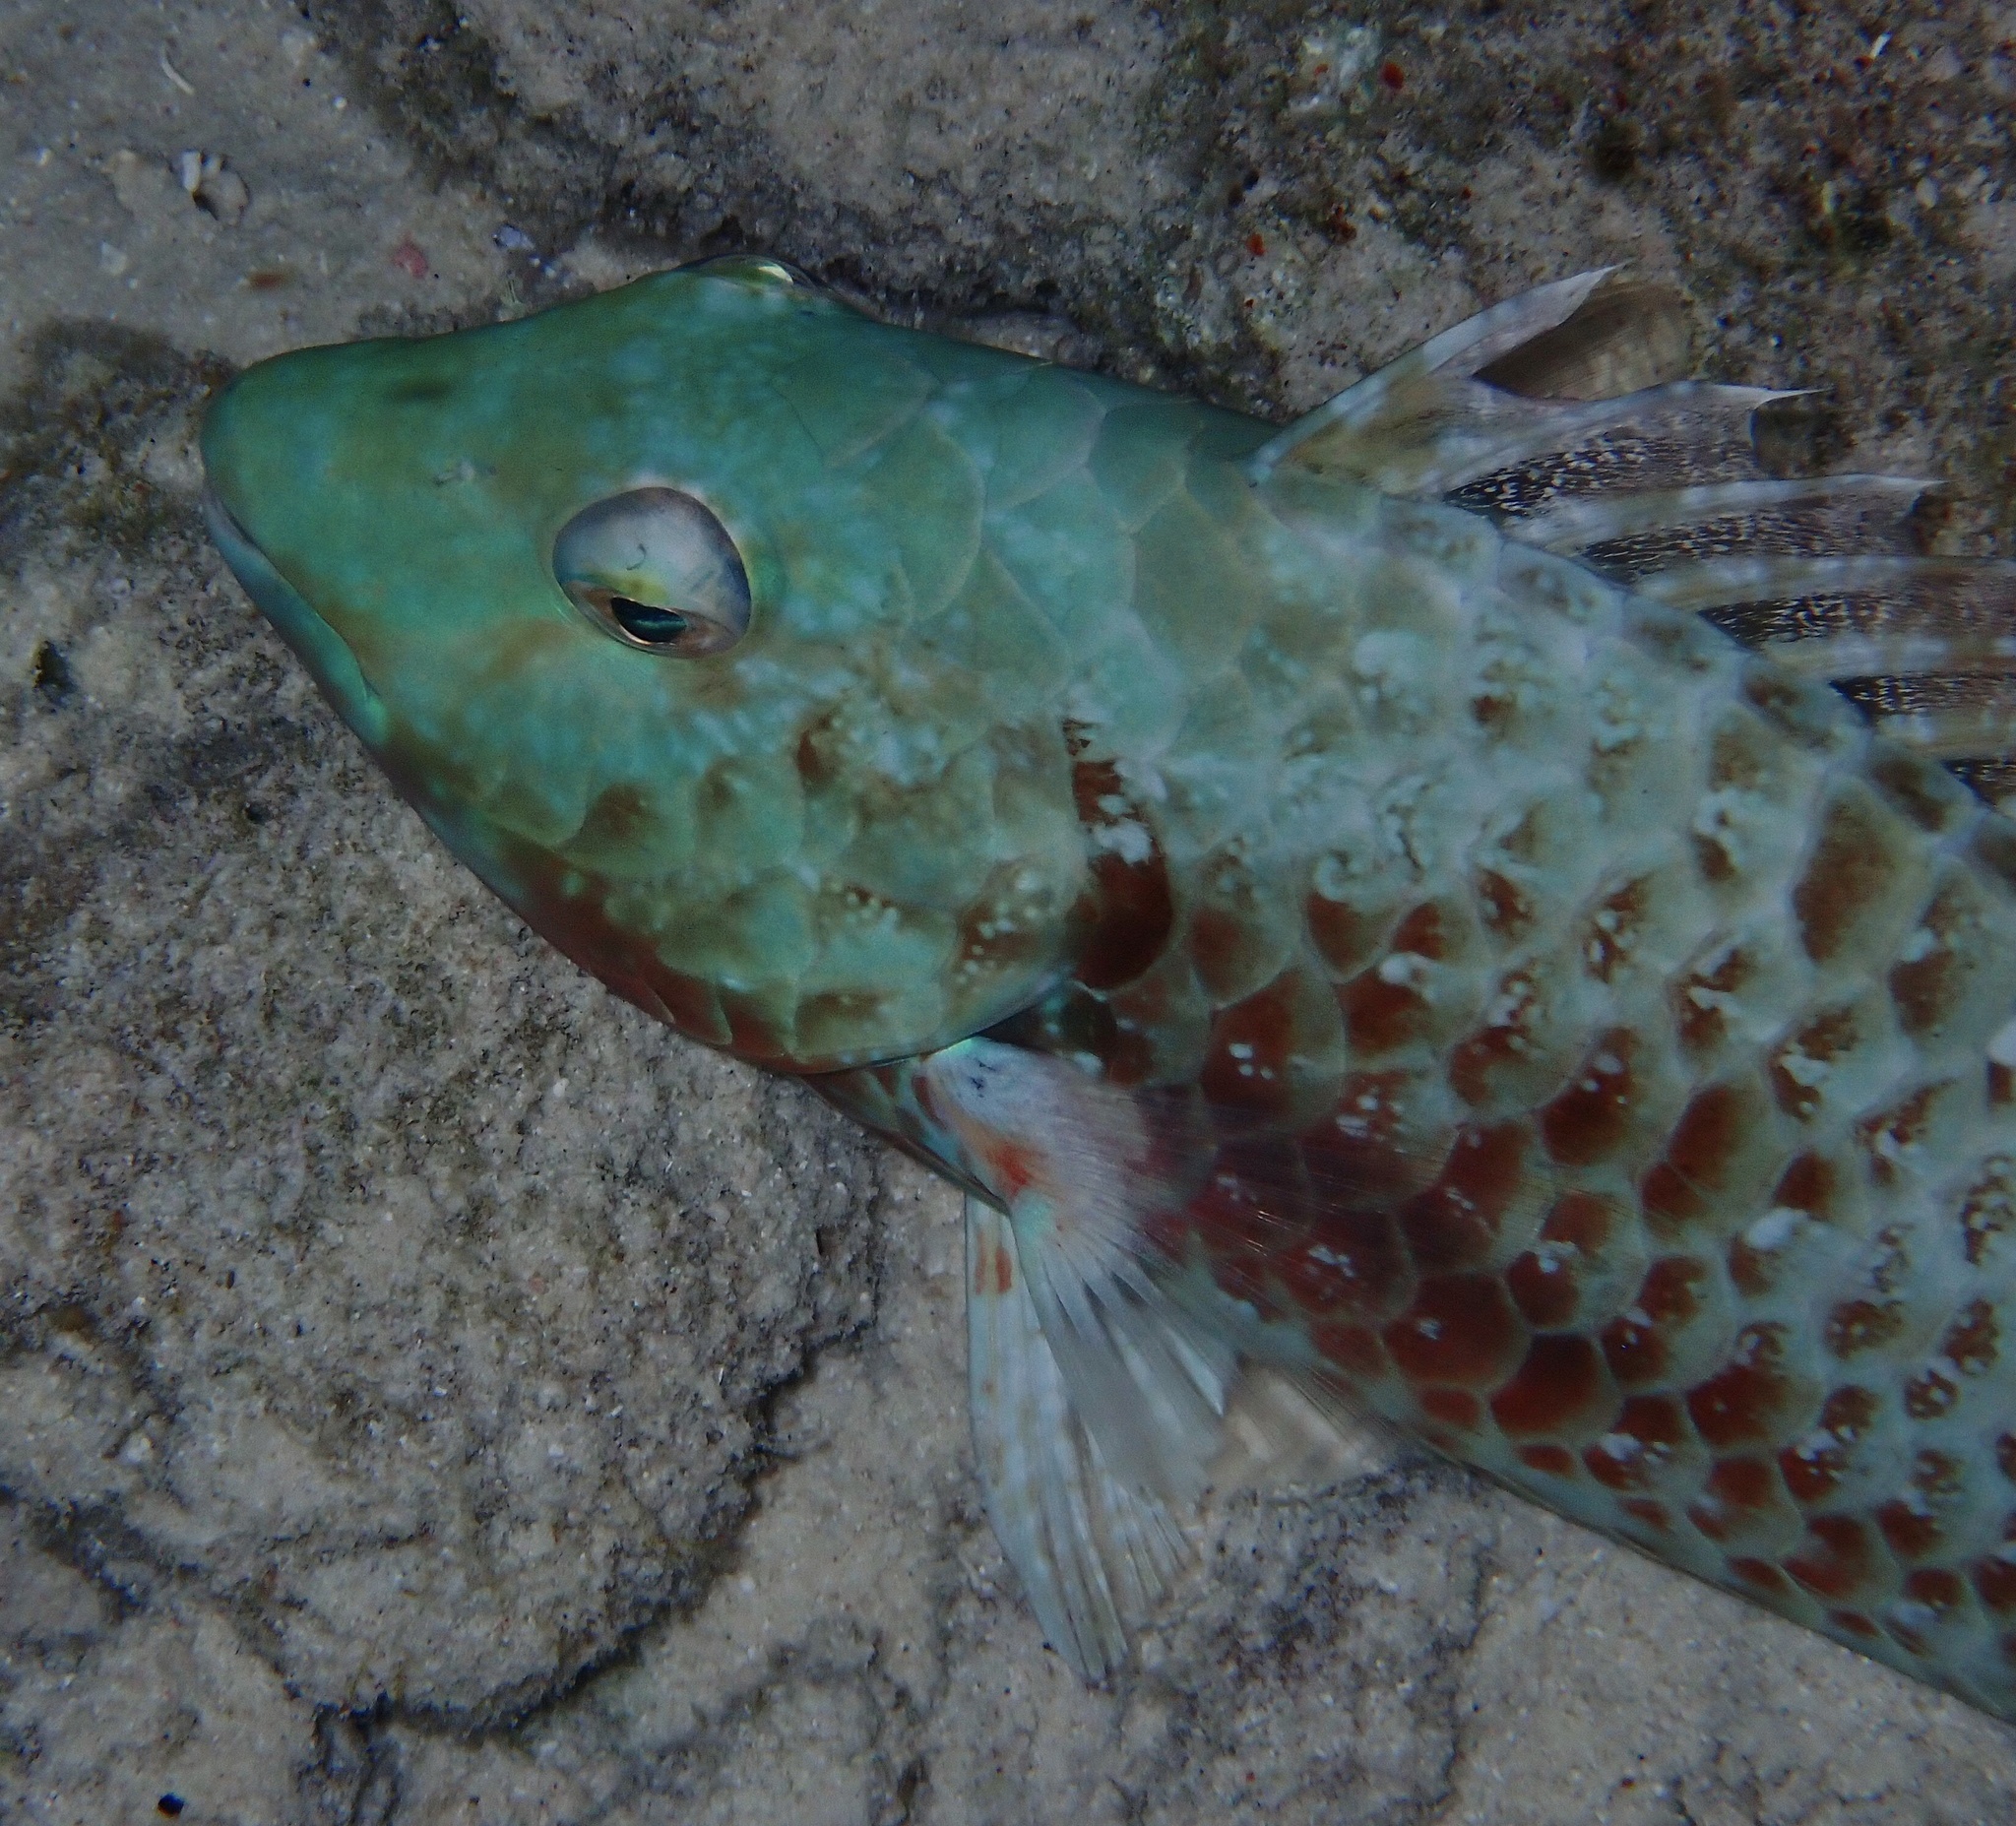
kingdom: Animalia
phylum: Chordata
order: Perciformes
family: Scaridae
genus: Sparisoma
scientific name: Sparisoma
